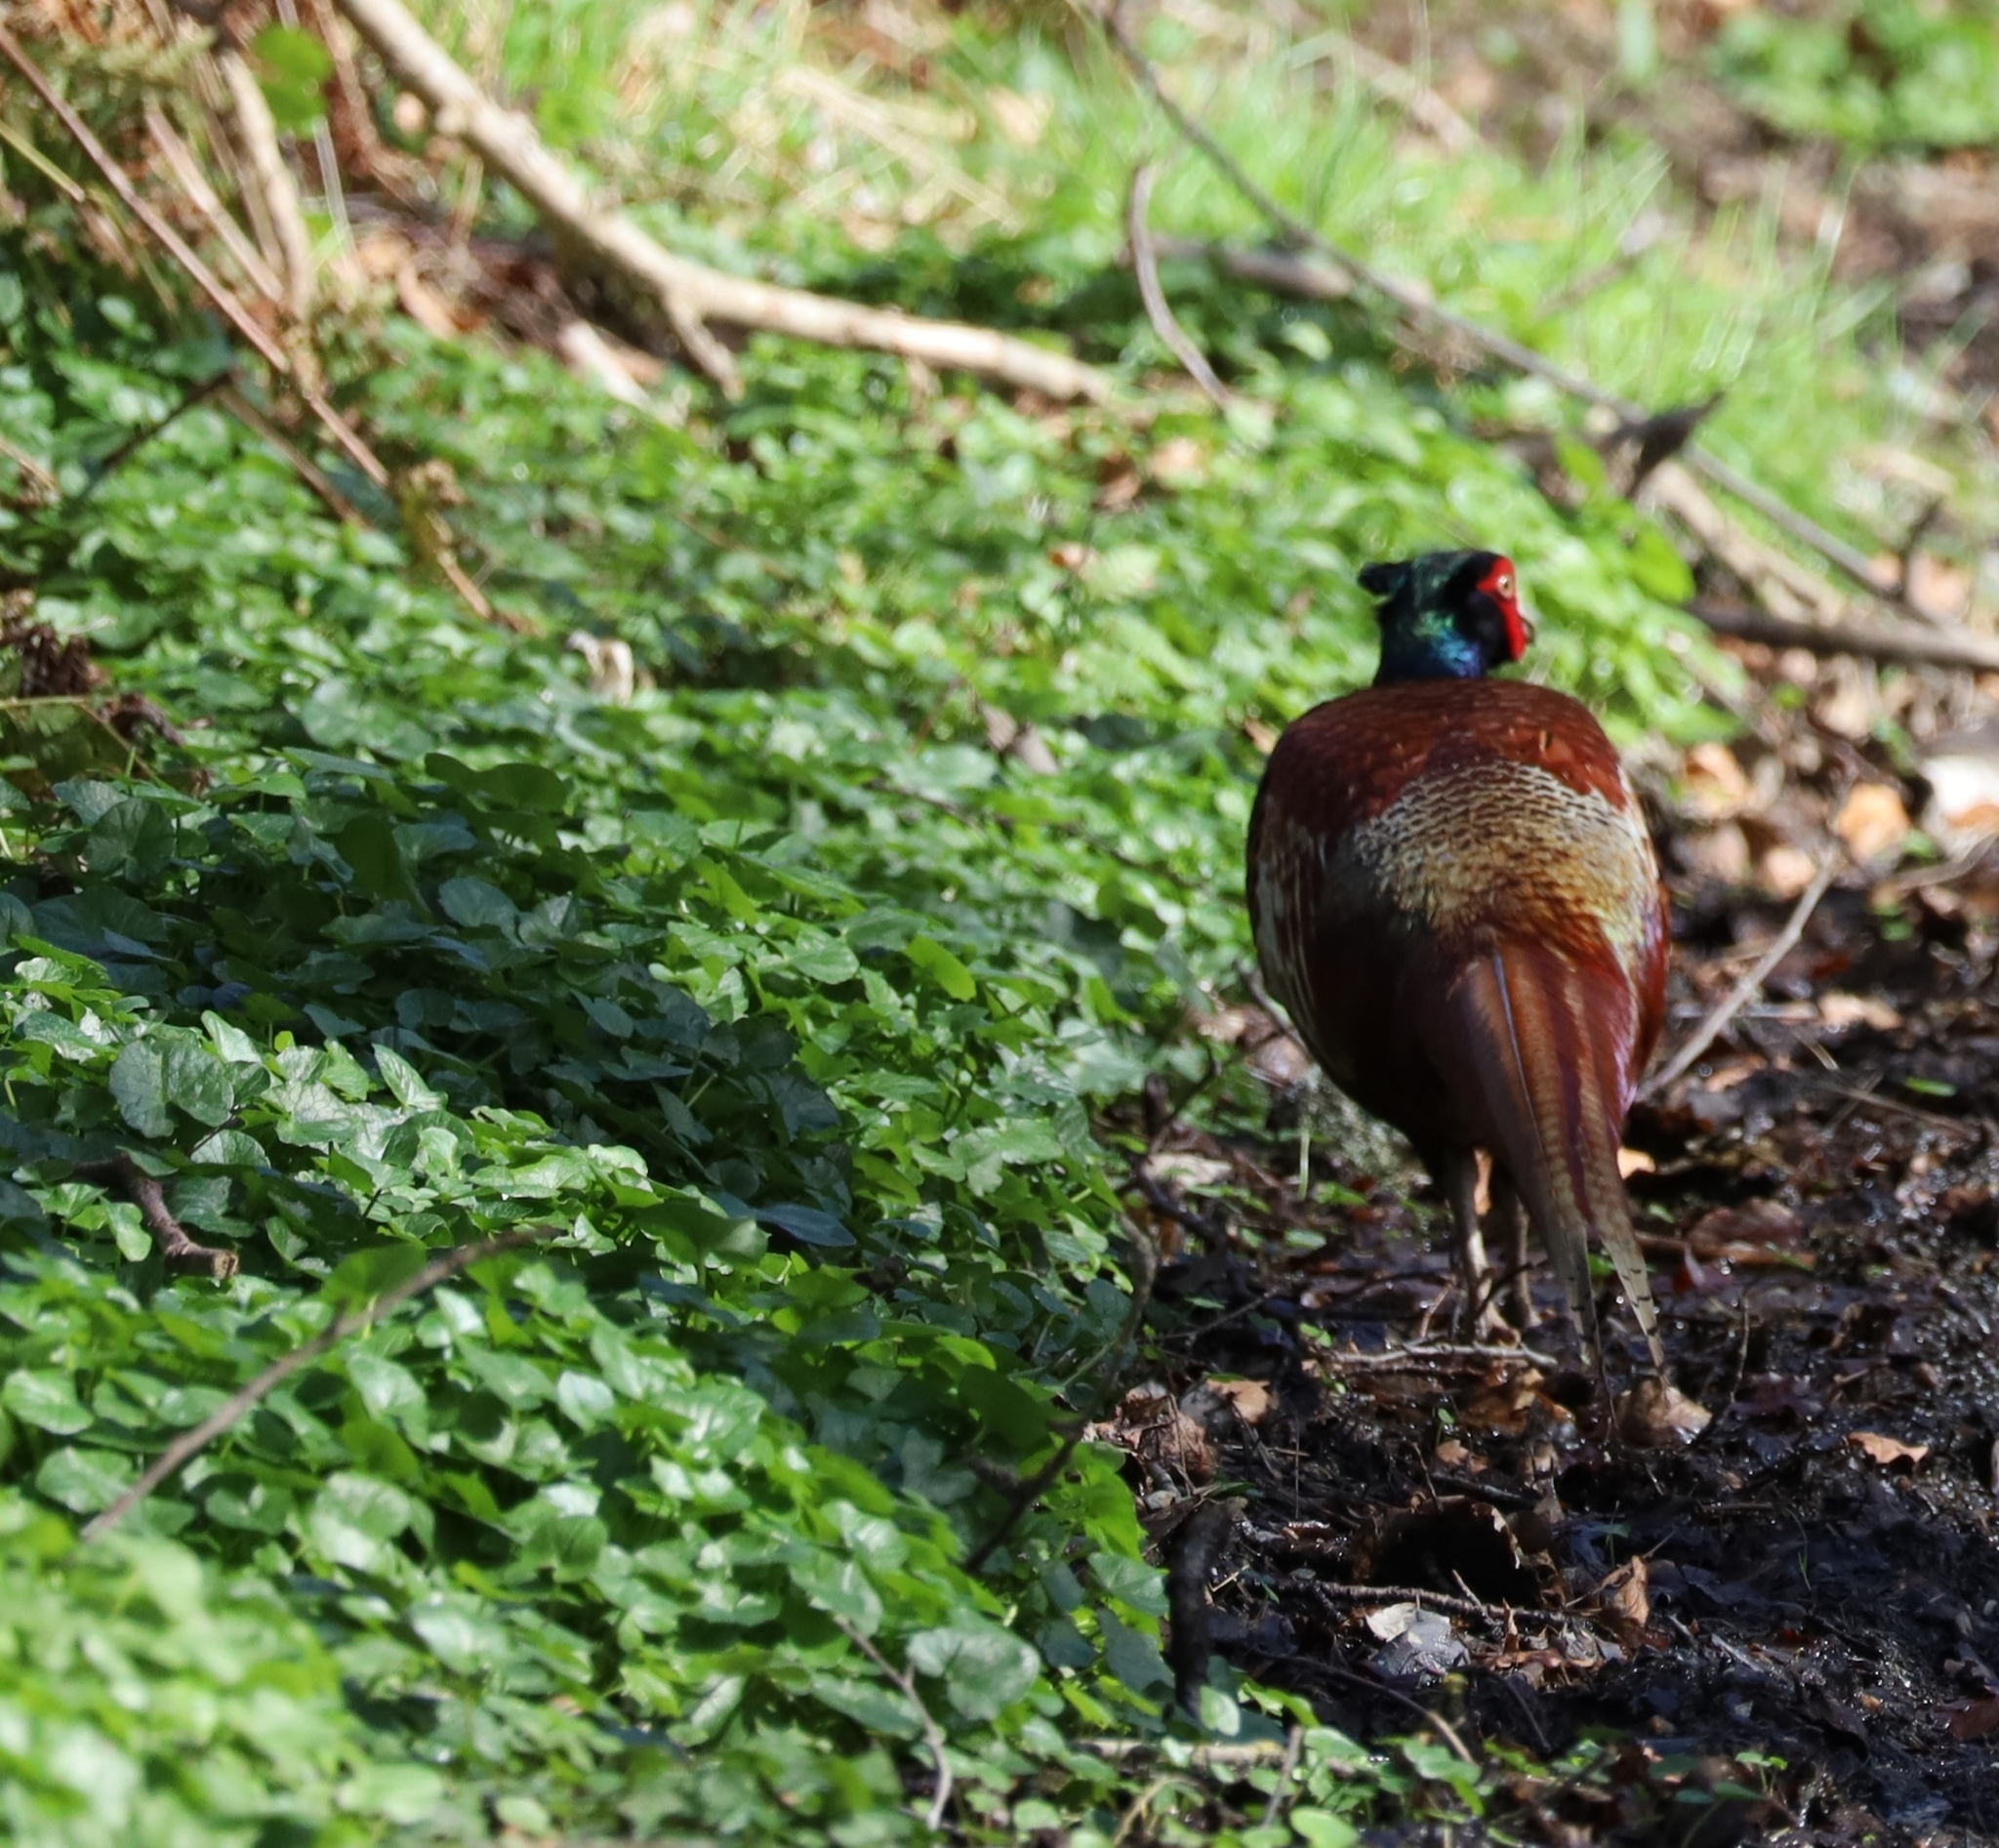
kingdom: Animalia
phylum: Chordata
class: Aves
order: Galliformes
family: Phasianidae
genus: Phasianus
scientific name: Phasianus colchicus
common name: Common pheasant
